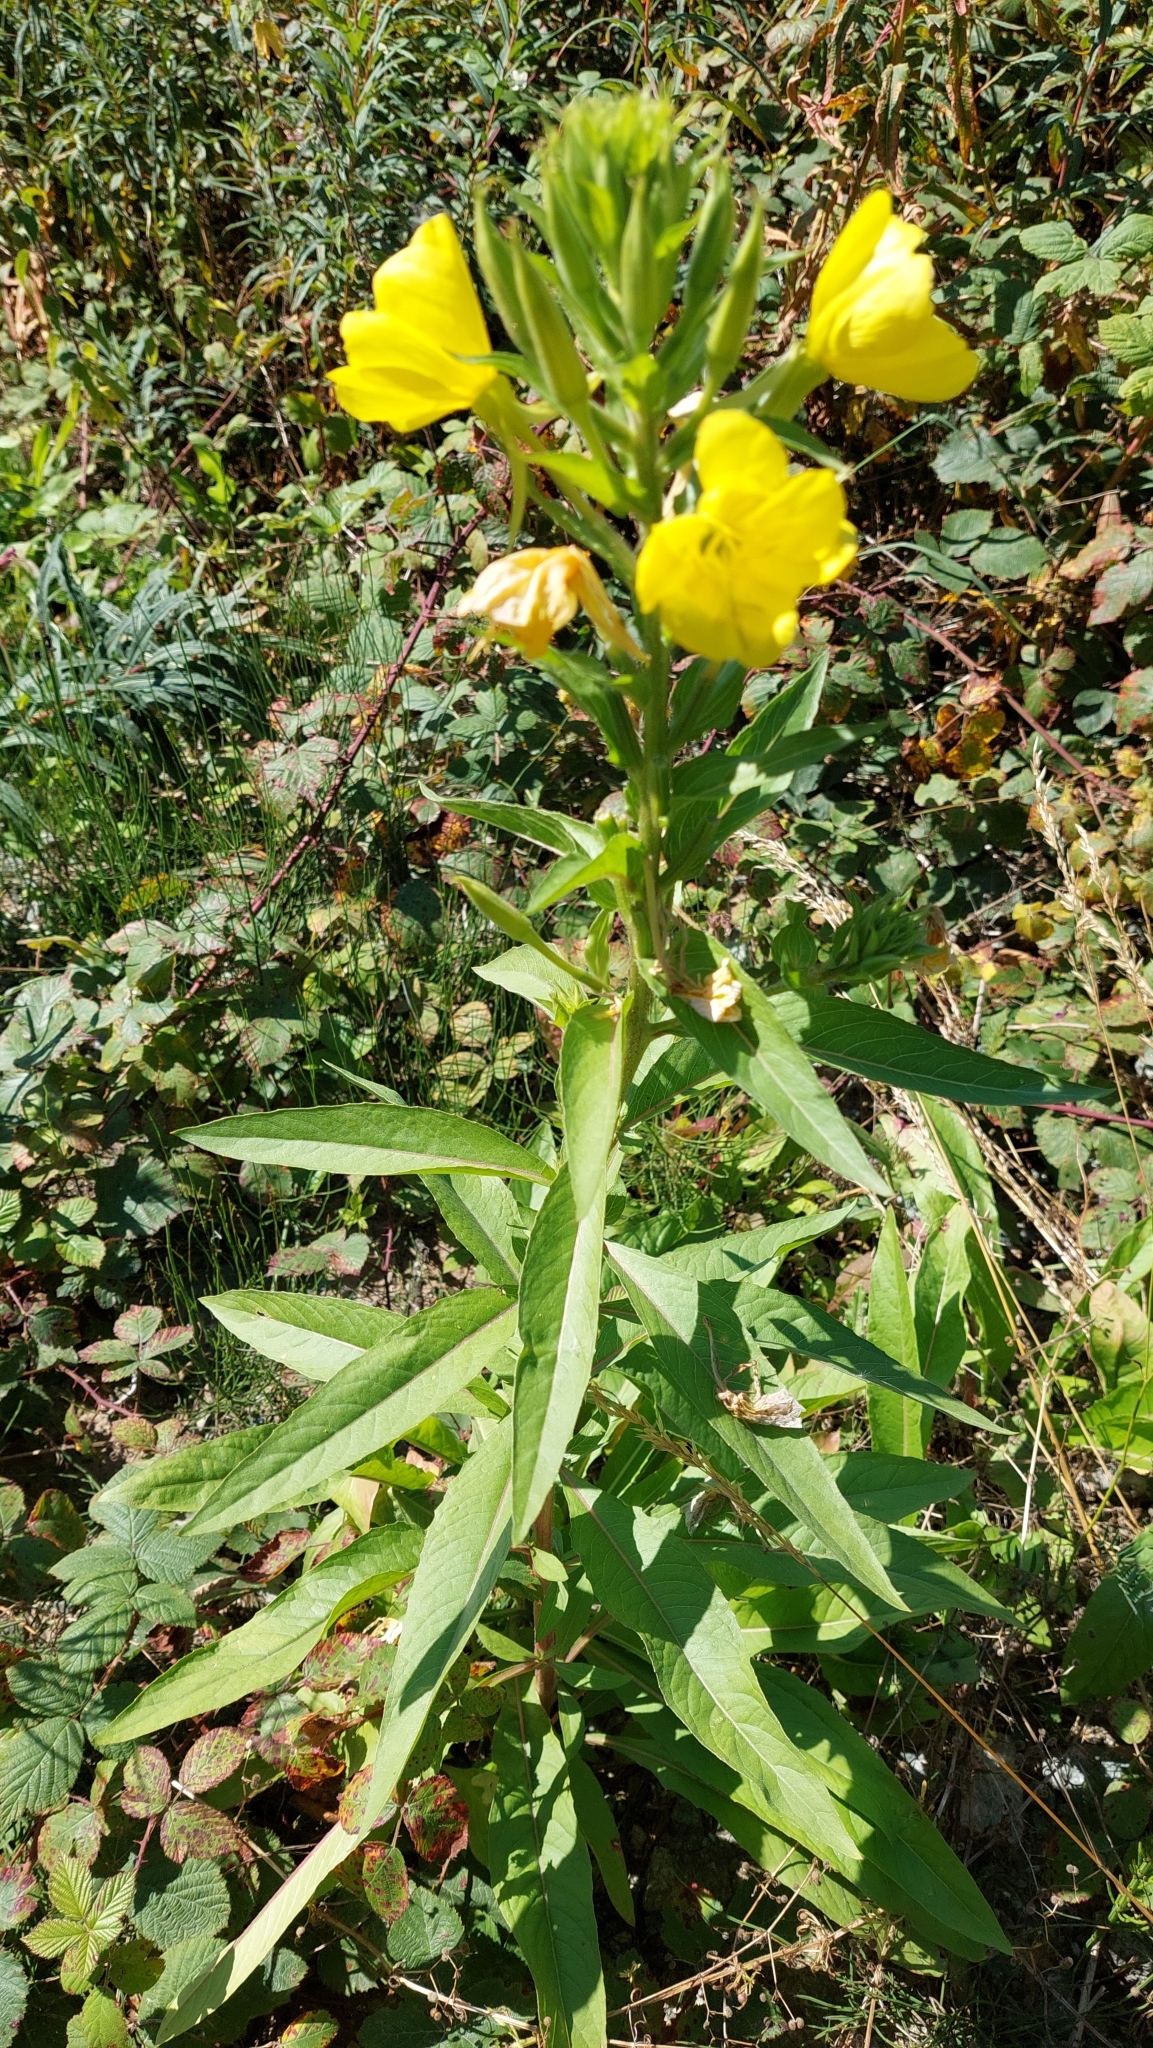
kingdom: Plantae
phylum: Tracheophyta
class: Magnoliopsida
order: Myrtales
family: Onagraceae
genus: Oenothera
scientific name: Oenothera biennis
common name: Common evening-primrose
